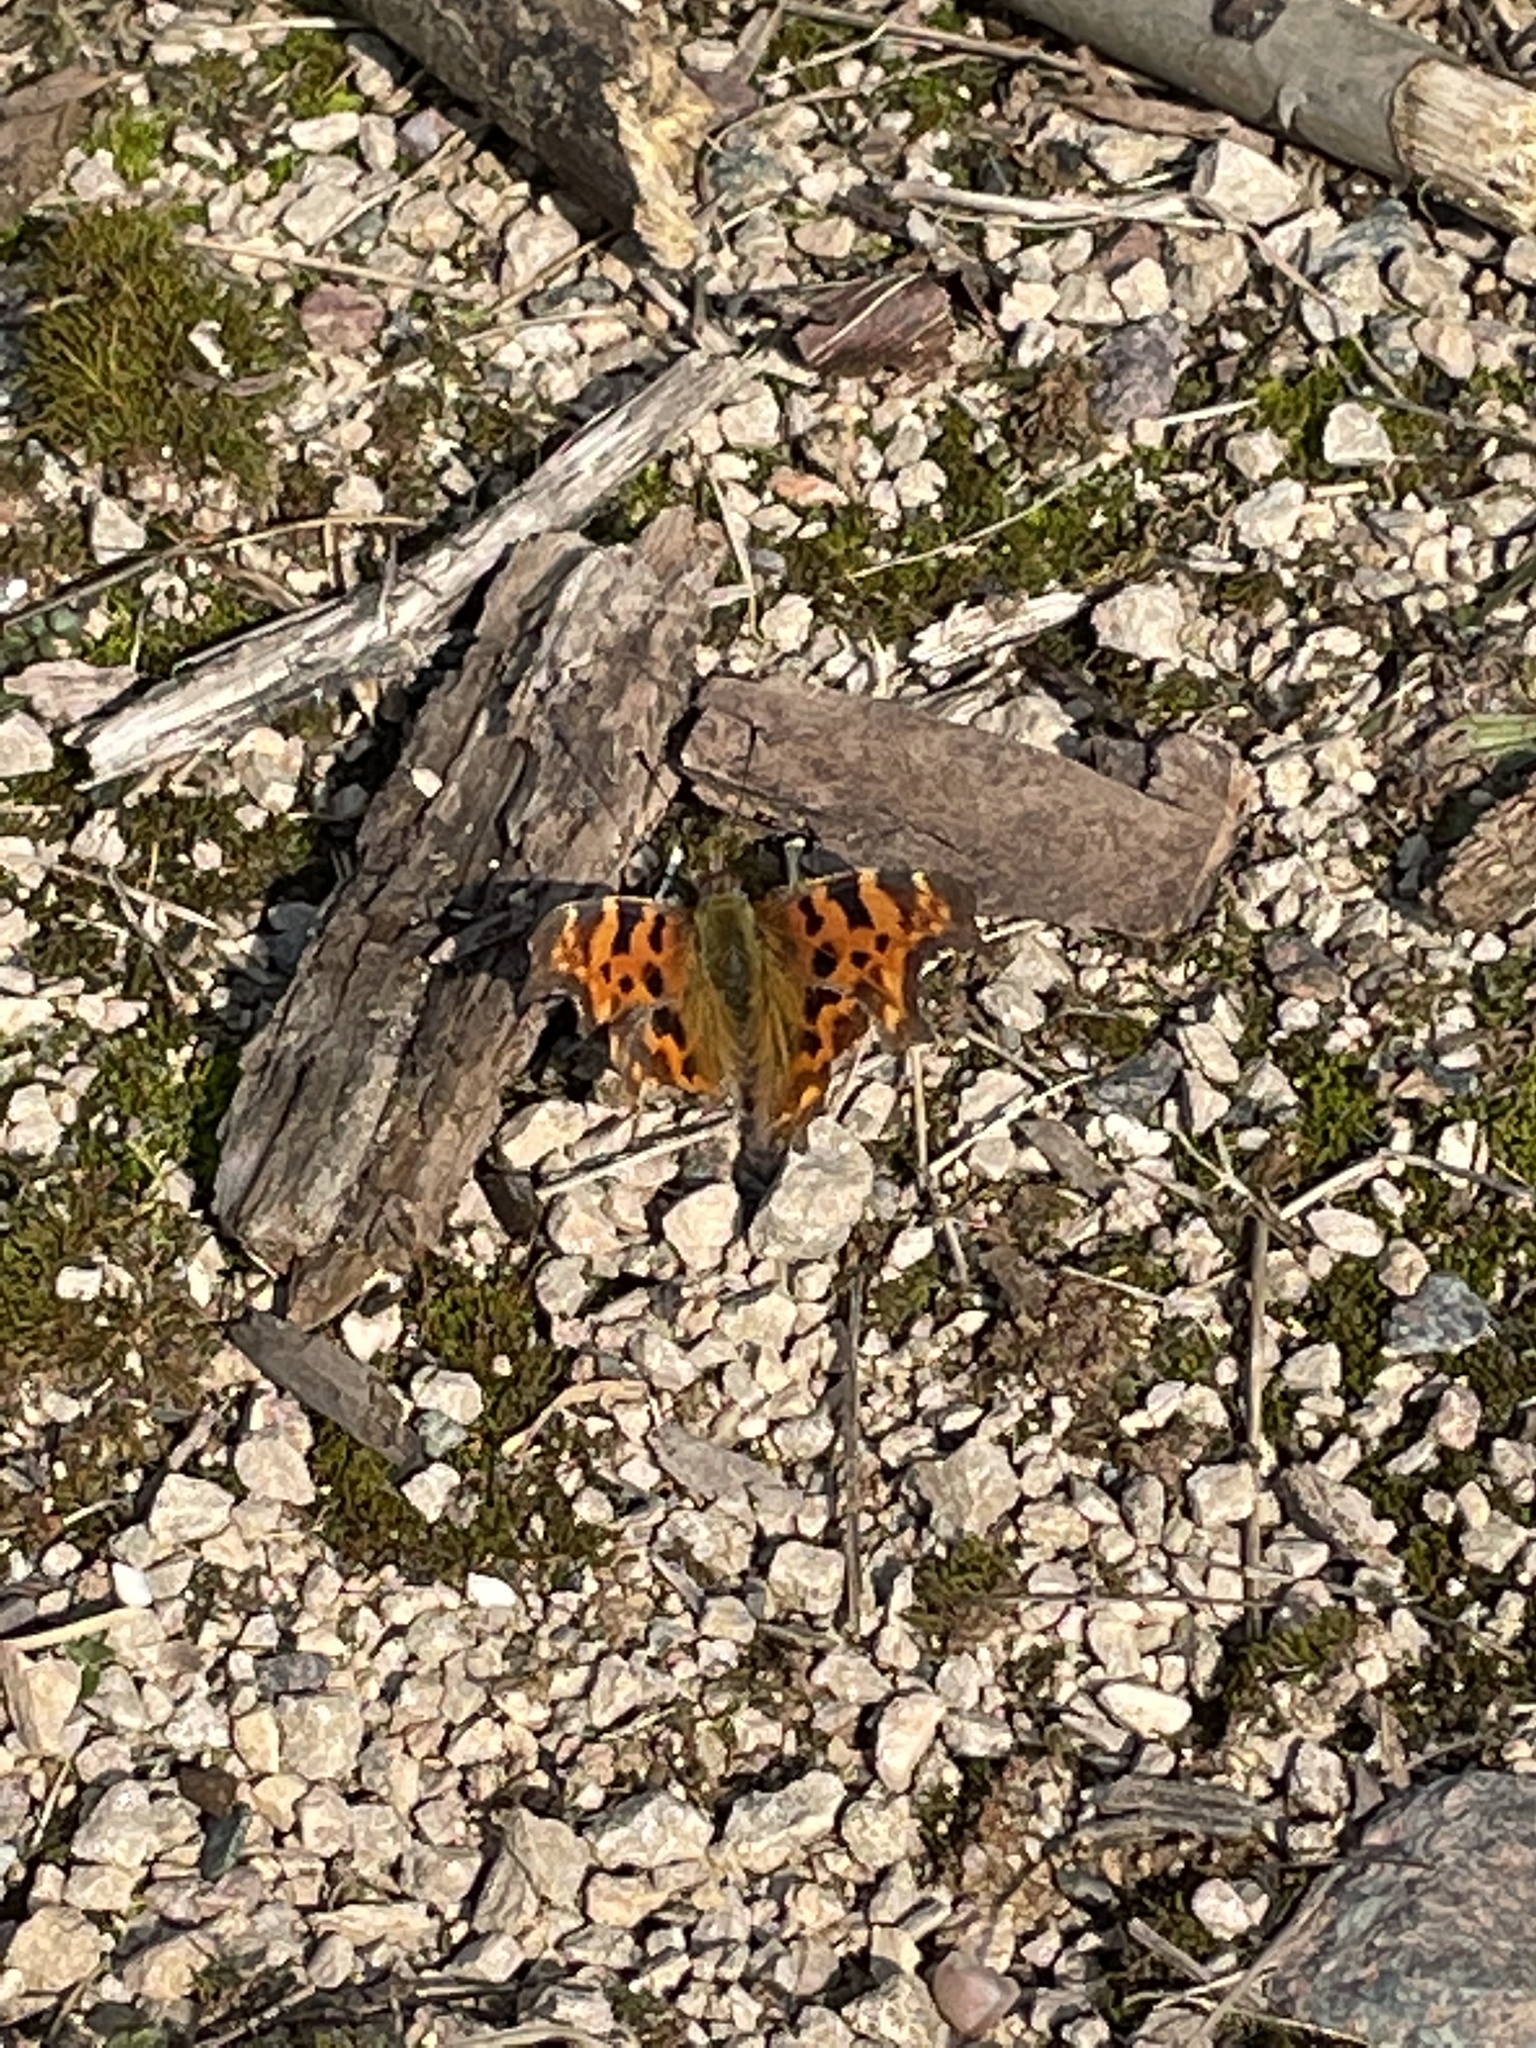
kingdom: Animalia
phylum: Arthropoda
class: Insecta
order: Lepidoptera
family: Nymphalidae
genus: Polygonia
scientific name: Polygonia c-album
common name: Comma
